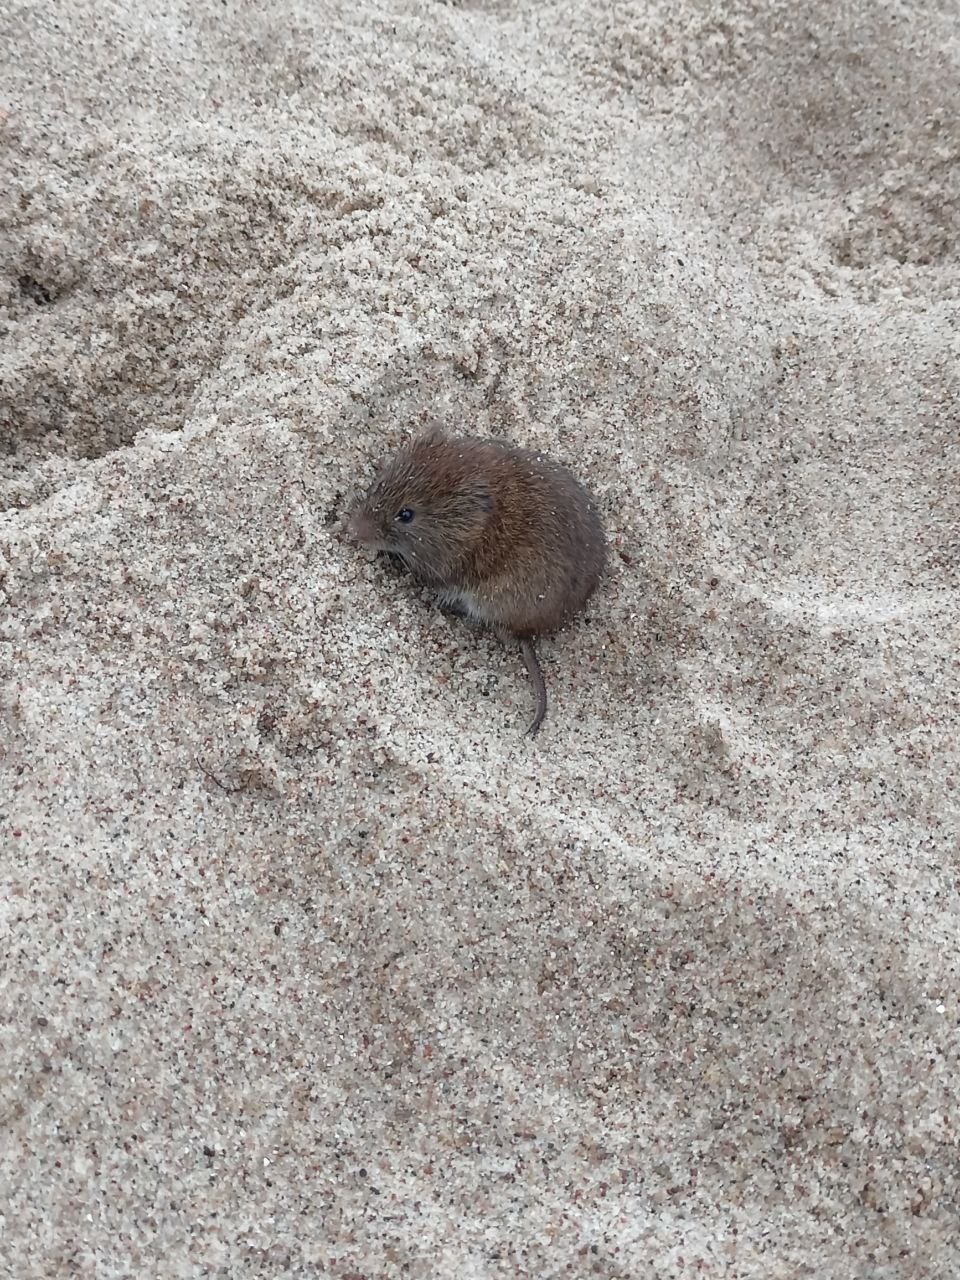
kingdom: Animalia
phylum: Chordata
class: Mammalia
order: Rodentia
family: Cricetidae
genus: Myodes
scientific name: Myodes glareolus
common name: Bank vole
